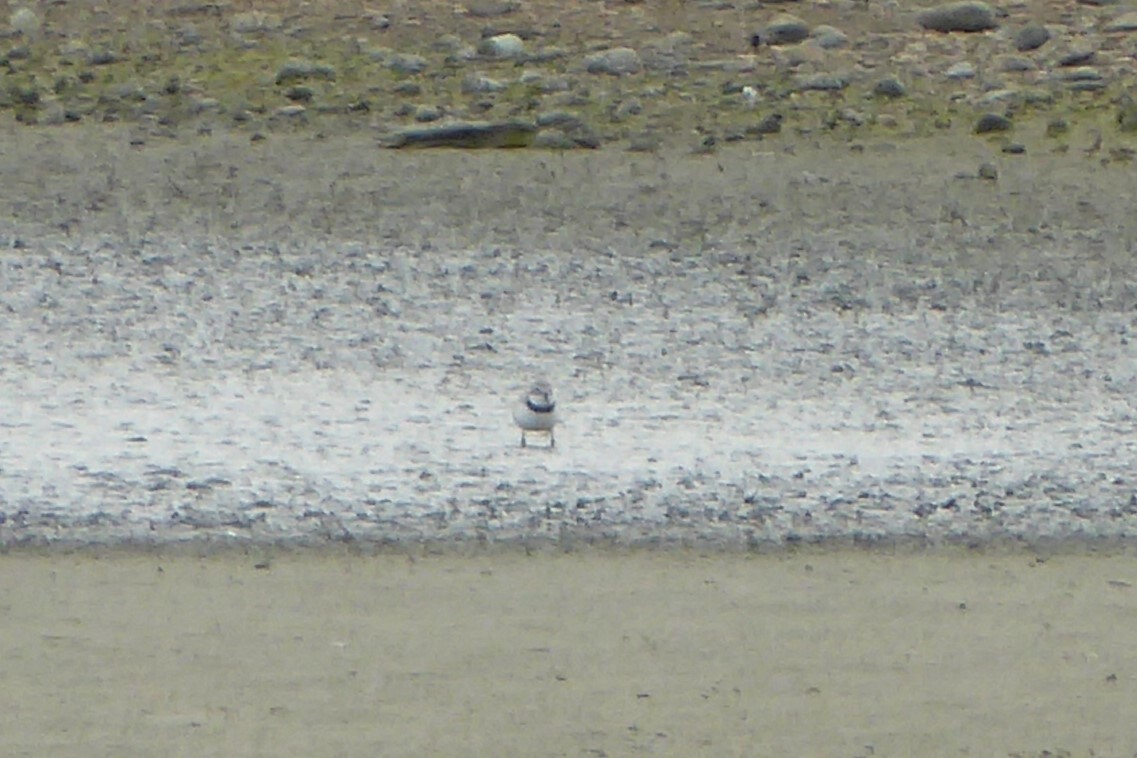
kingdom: Animalia
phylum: Chordata
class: Aves
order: Charadriiformes
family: Charadriidae
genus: Anarhynchus
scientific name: Anarhynchus frontalis
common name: Wrybill
